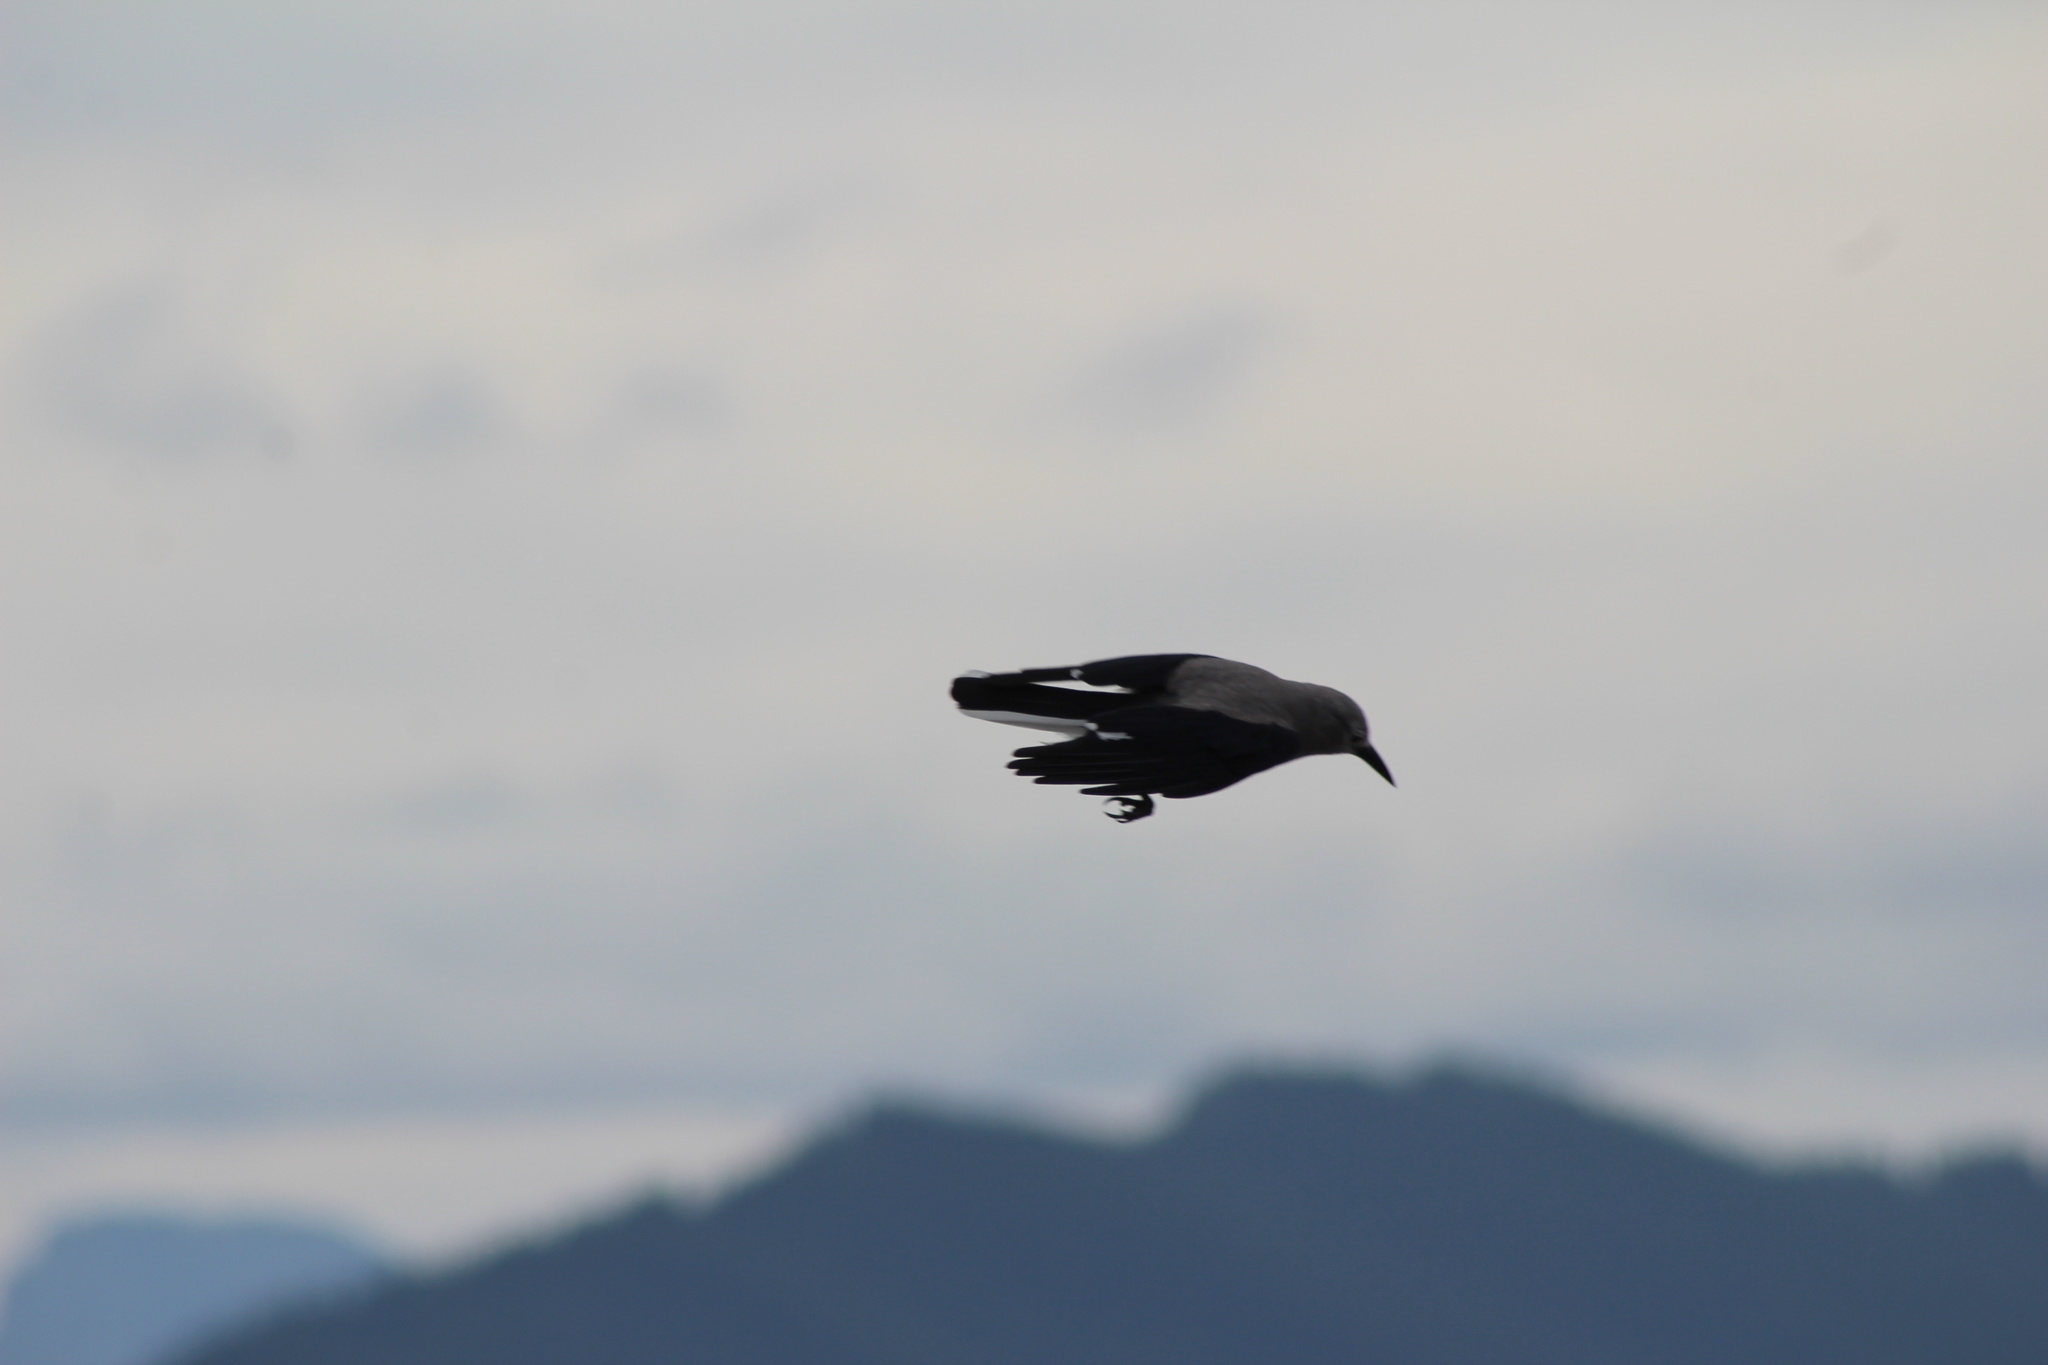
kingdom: Animalia
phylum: Chordata
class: Aves
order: Passeriformes
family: Corvidae
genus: Nucifraga
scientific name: Nucifraga columbiana
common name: Clark's nutcracker
